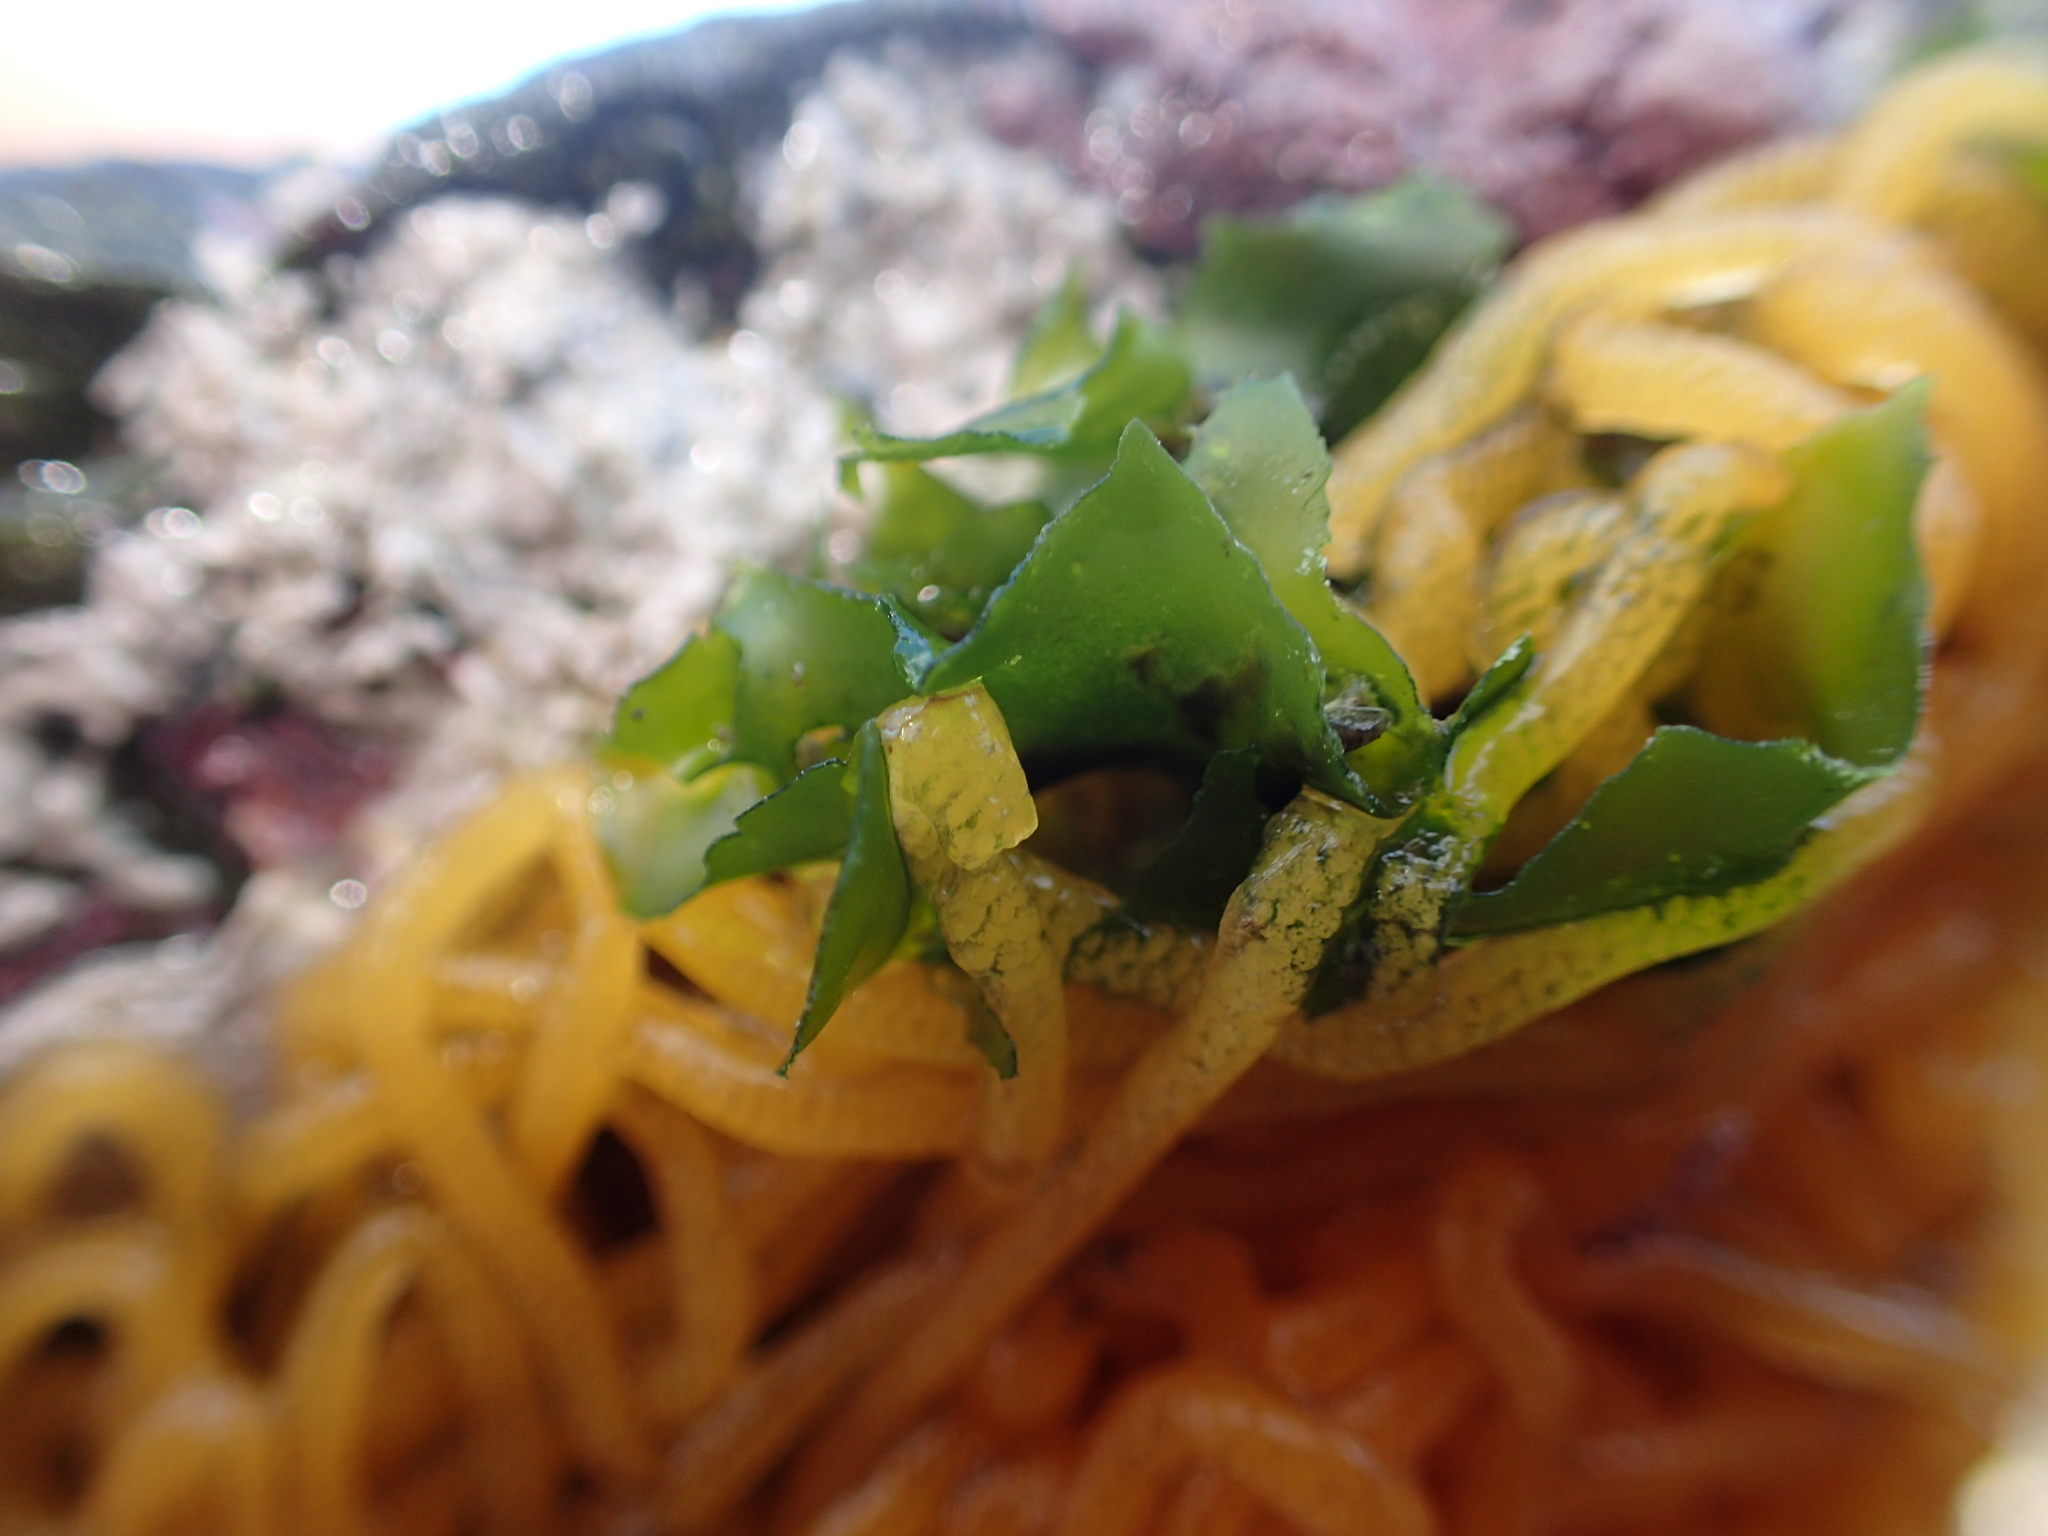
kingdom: Animalia
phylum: Mollusca
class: Gastropoda
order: Aplysiida
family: Aplysiidae
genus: Aplysia
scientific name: Aplysia
